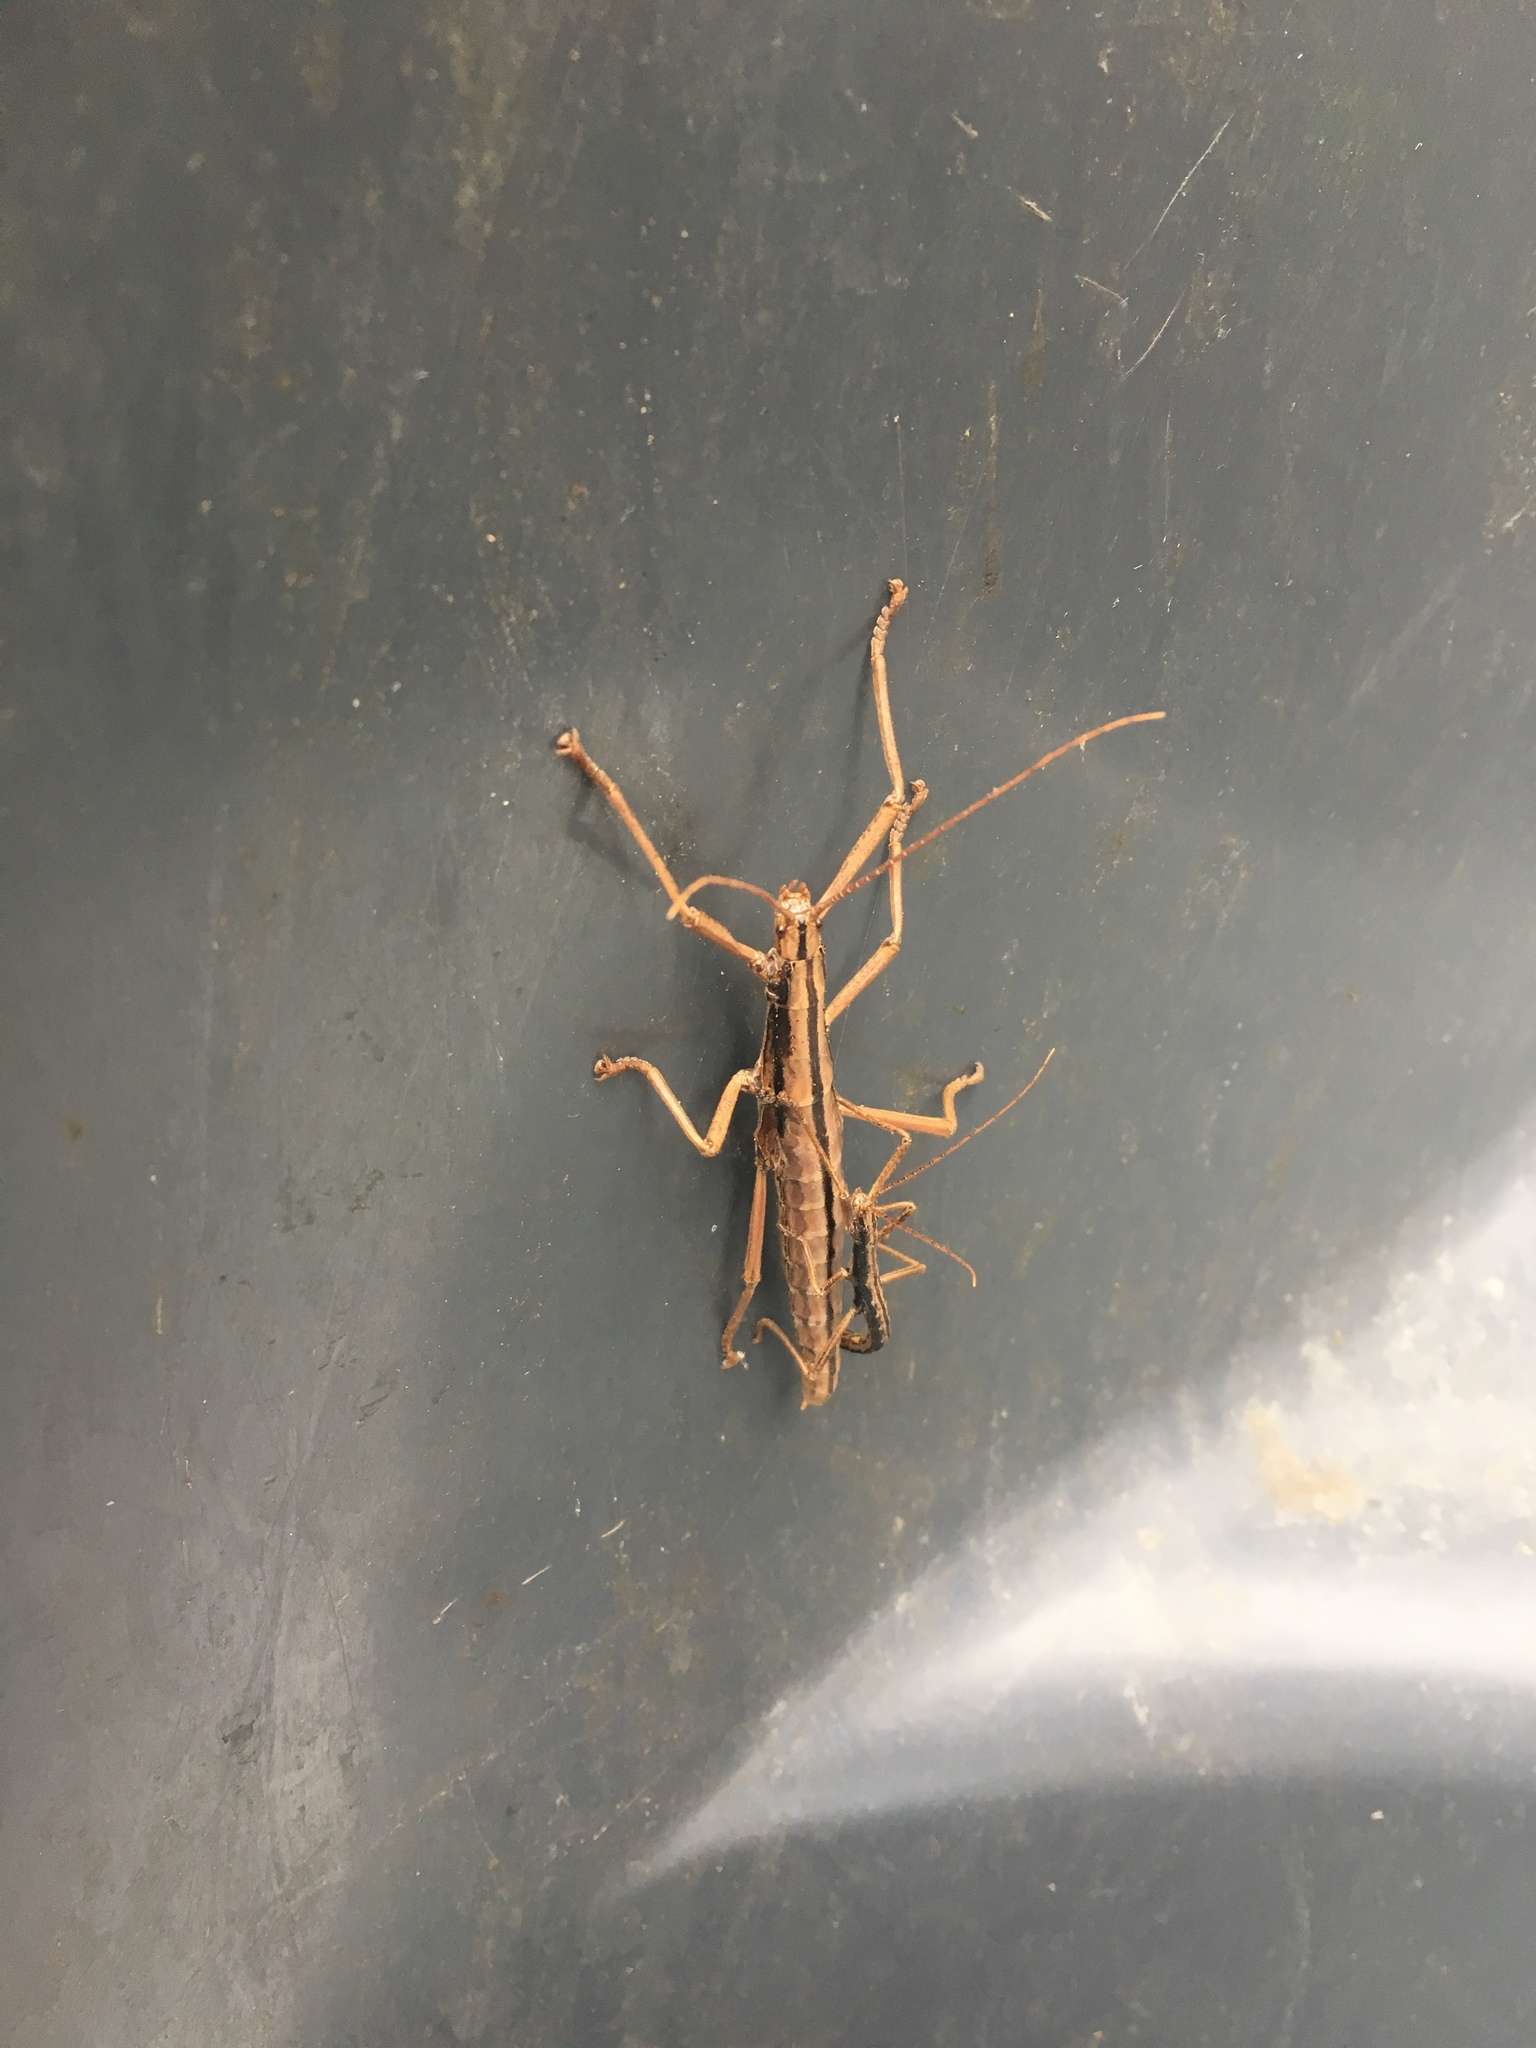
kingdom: Animalia
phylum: Arthropoda
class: Insecta
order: Phasmida
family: Pseudophasmatidae
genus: Anisomorpha
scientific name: Anisomorpha buprestoides
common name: Florida stick insect
